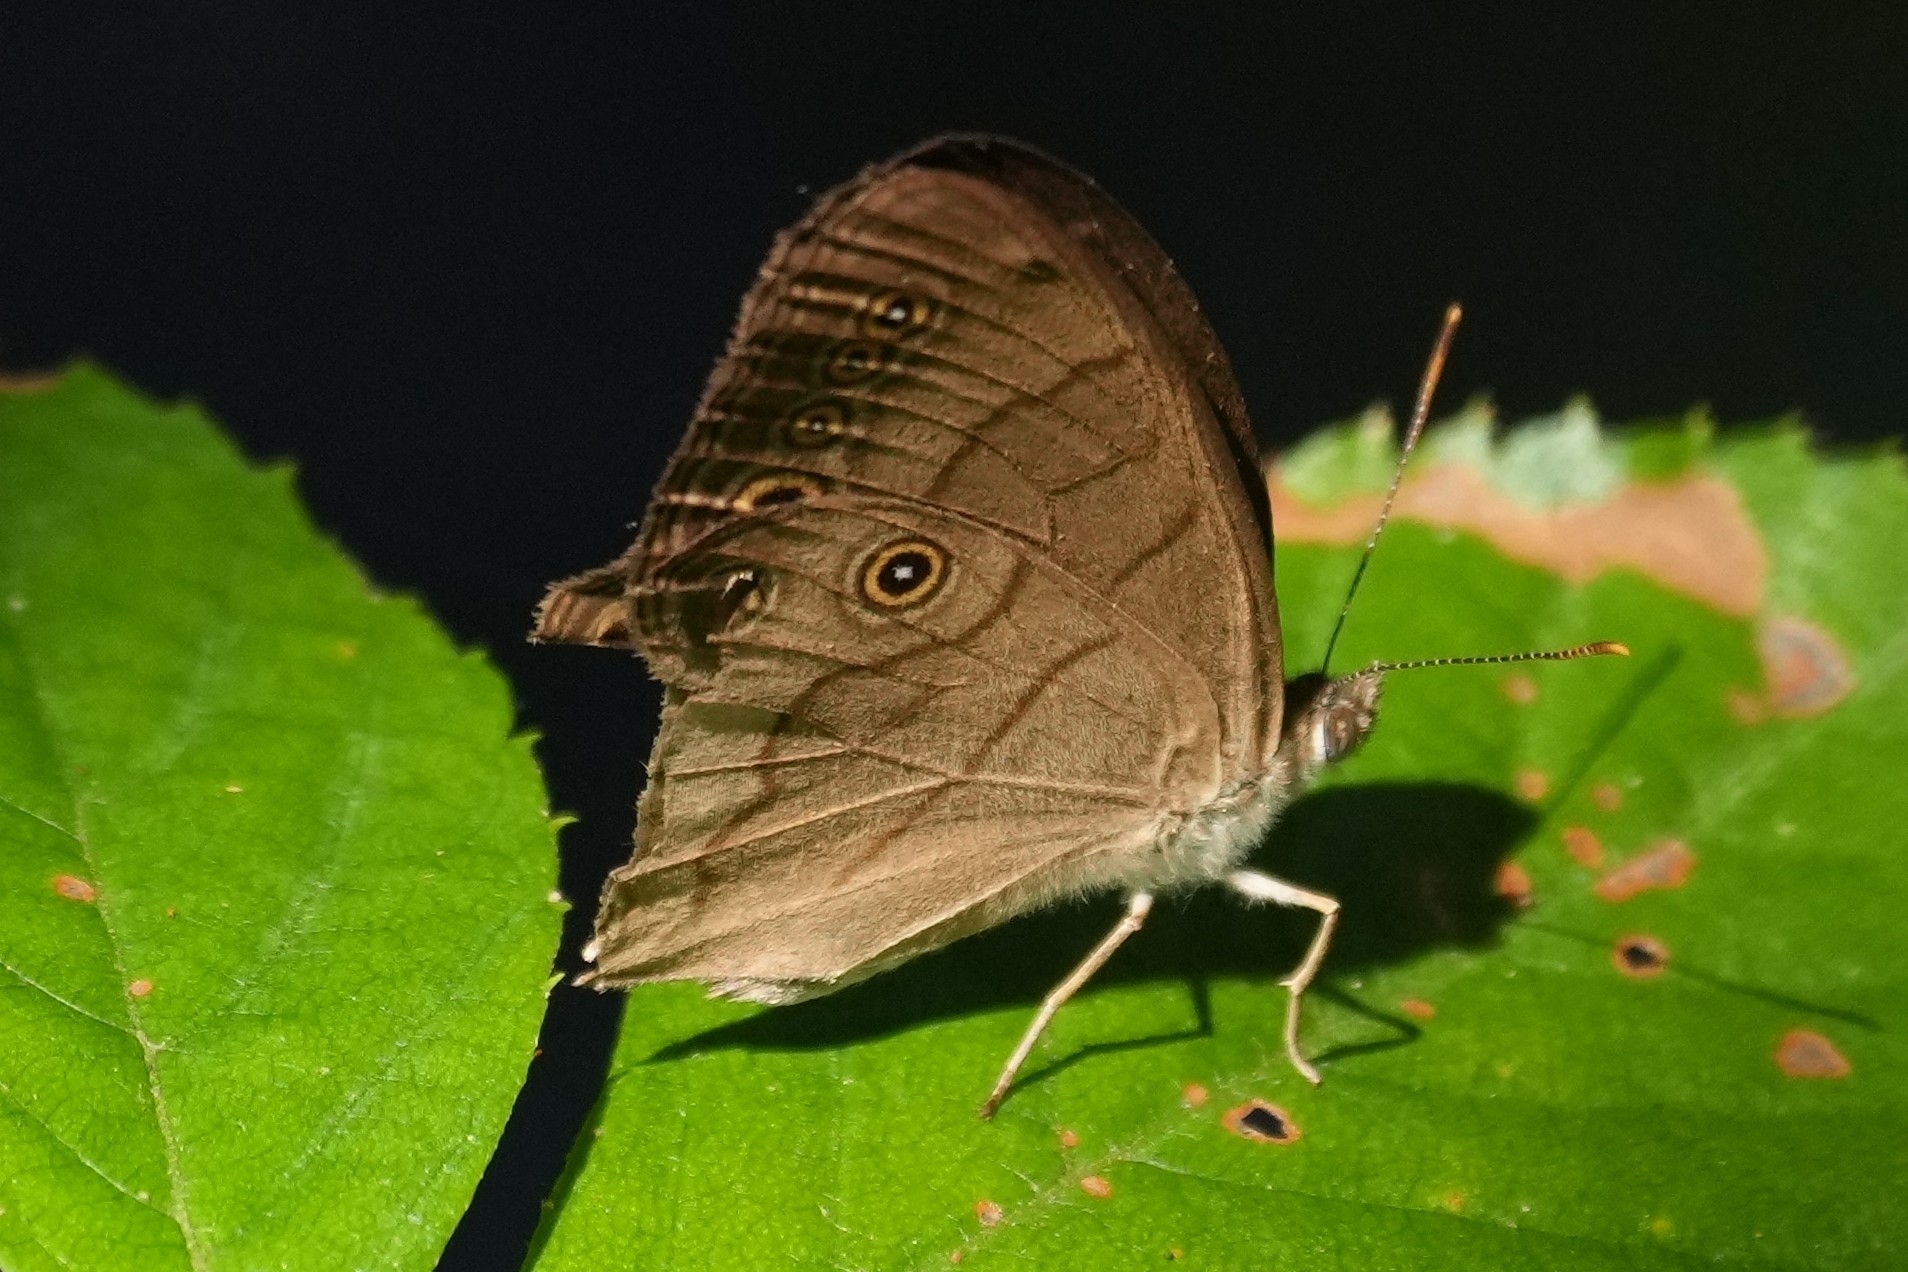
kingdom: Animalia
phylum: Arthropoda
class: Insecta
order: Lepidoptera
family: Nymphalidae
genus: Lethe
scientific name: Lethe eurydice
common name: Eyed brown
